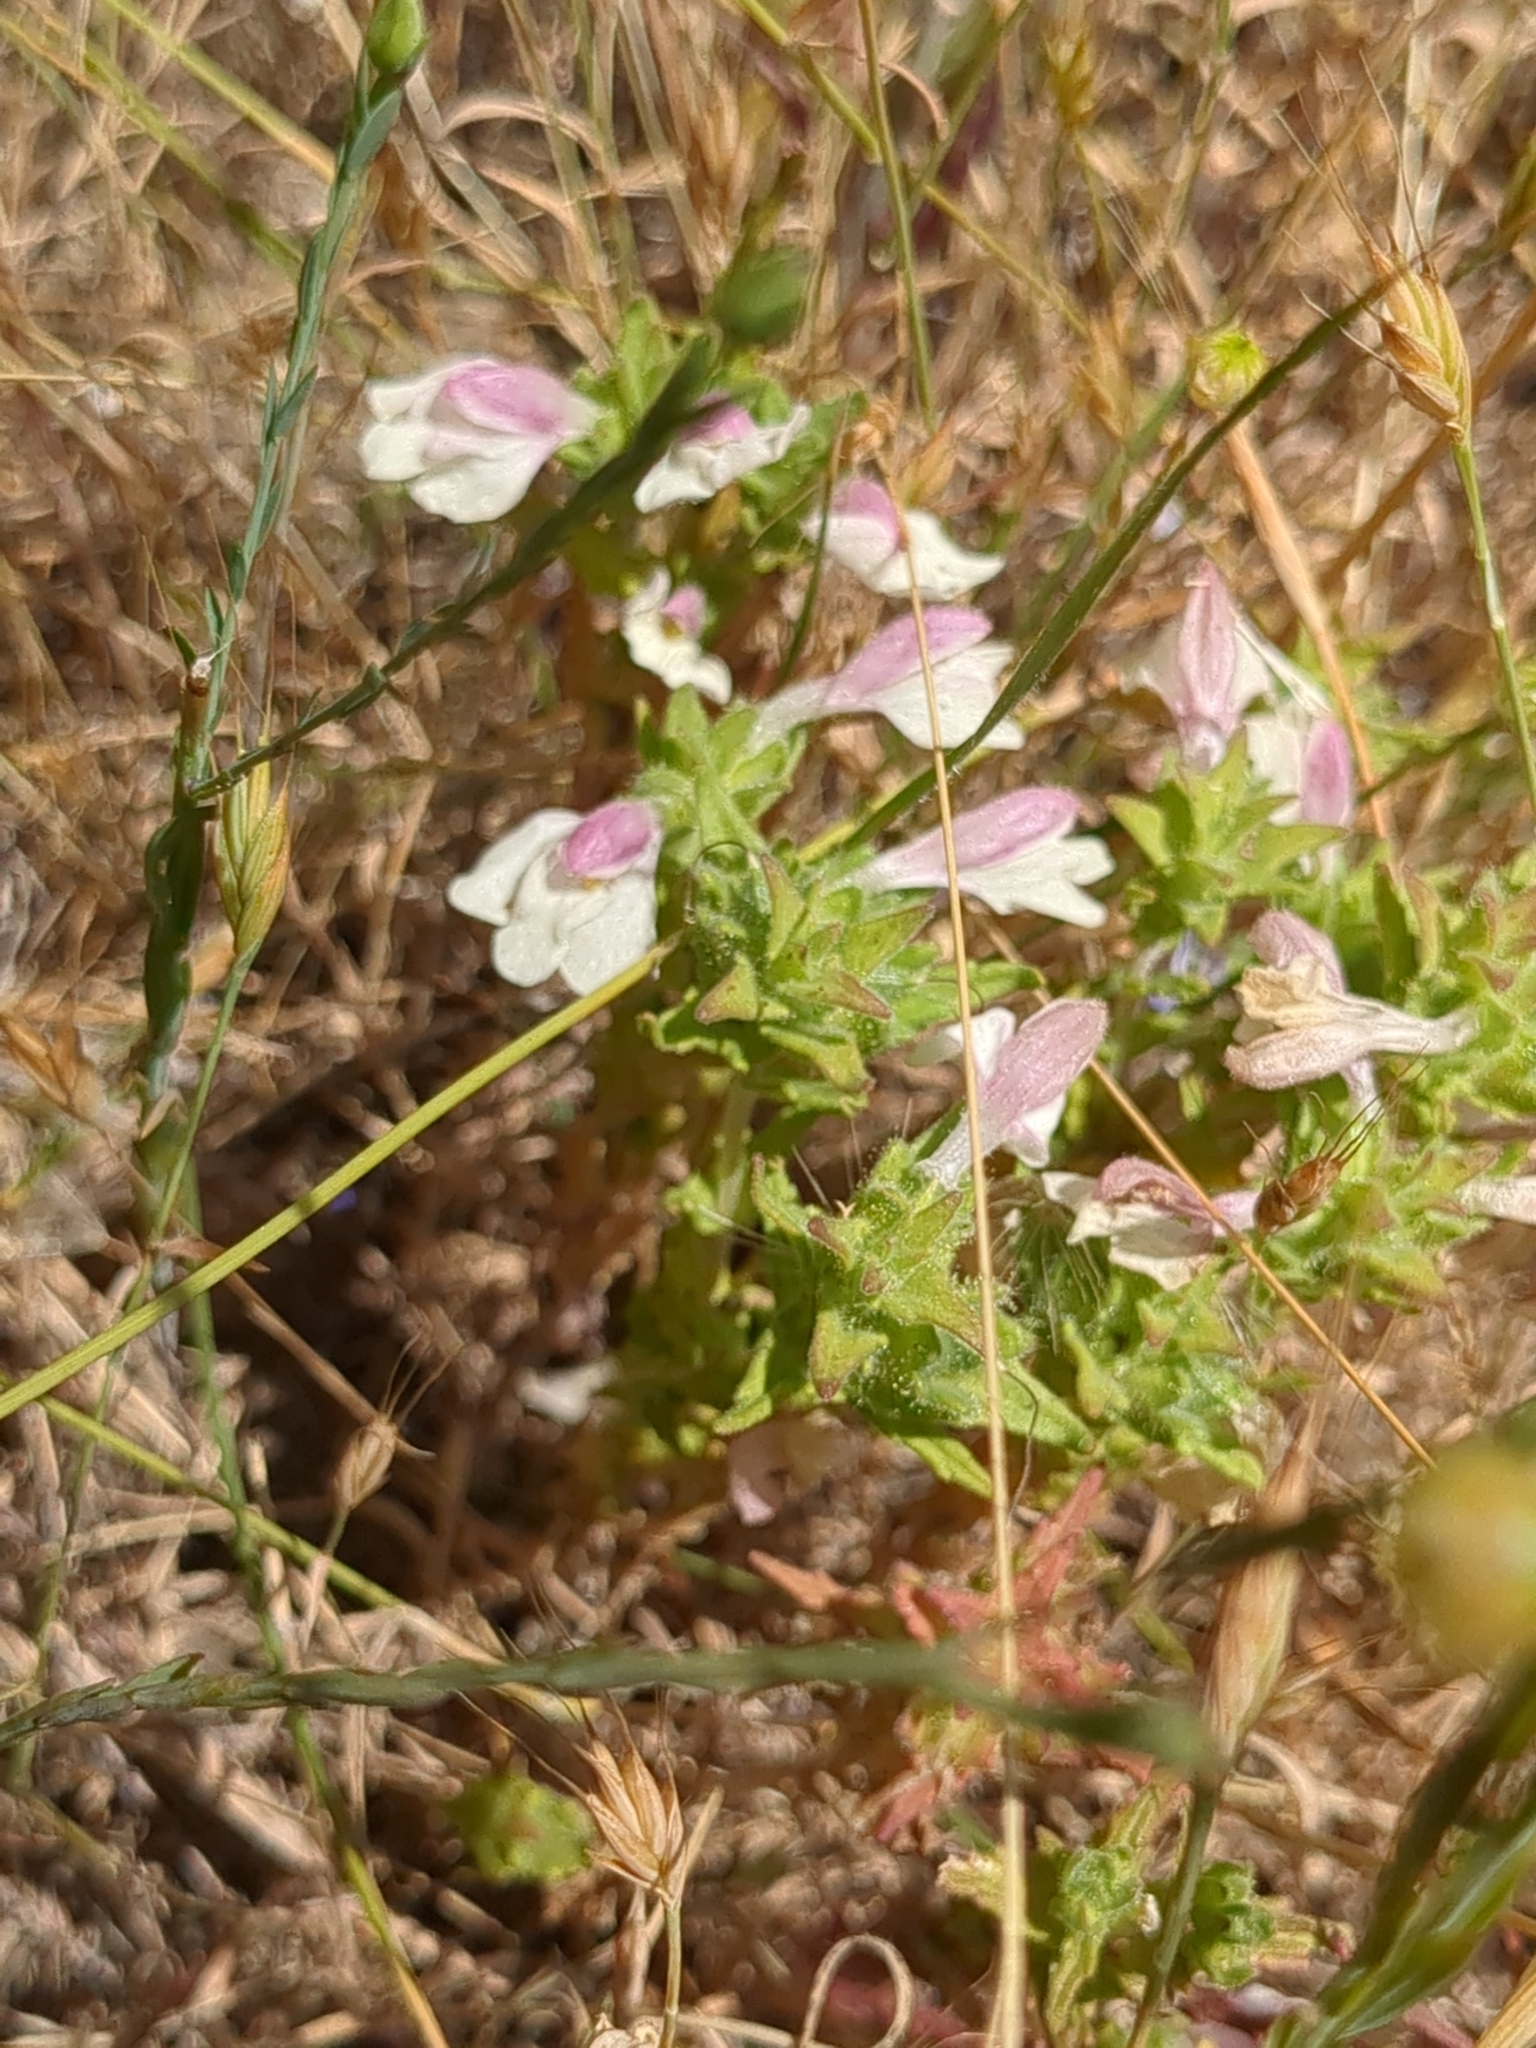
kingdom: Plantae
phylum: Tracheophyta
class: Magnoliopsida
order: Lamiales
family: Orobanchaceae
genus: Bellardia
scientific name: Bellardia trixago
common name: Mediterranean lineseed
